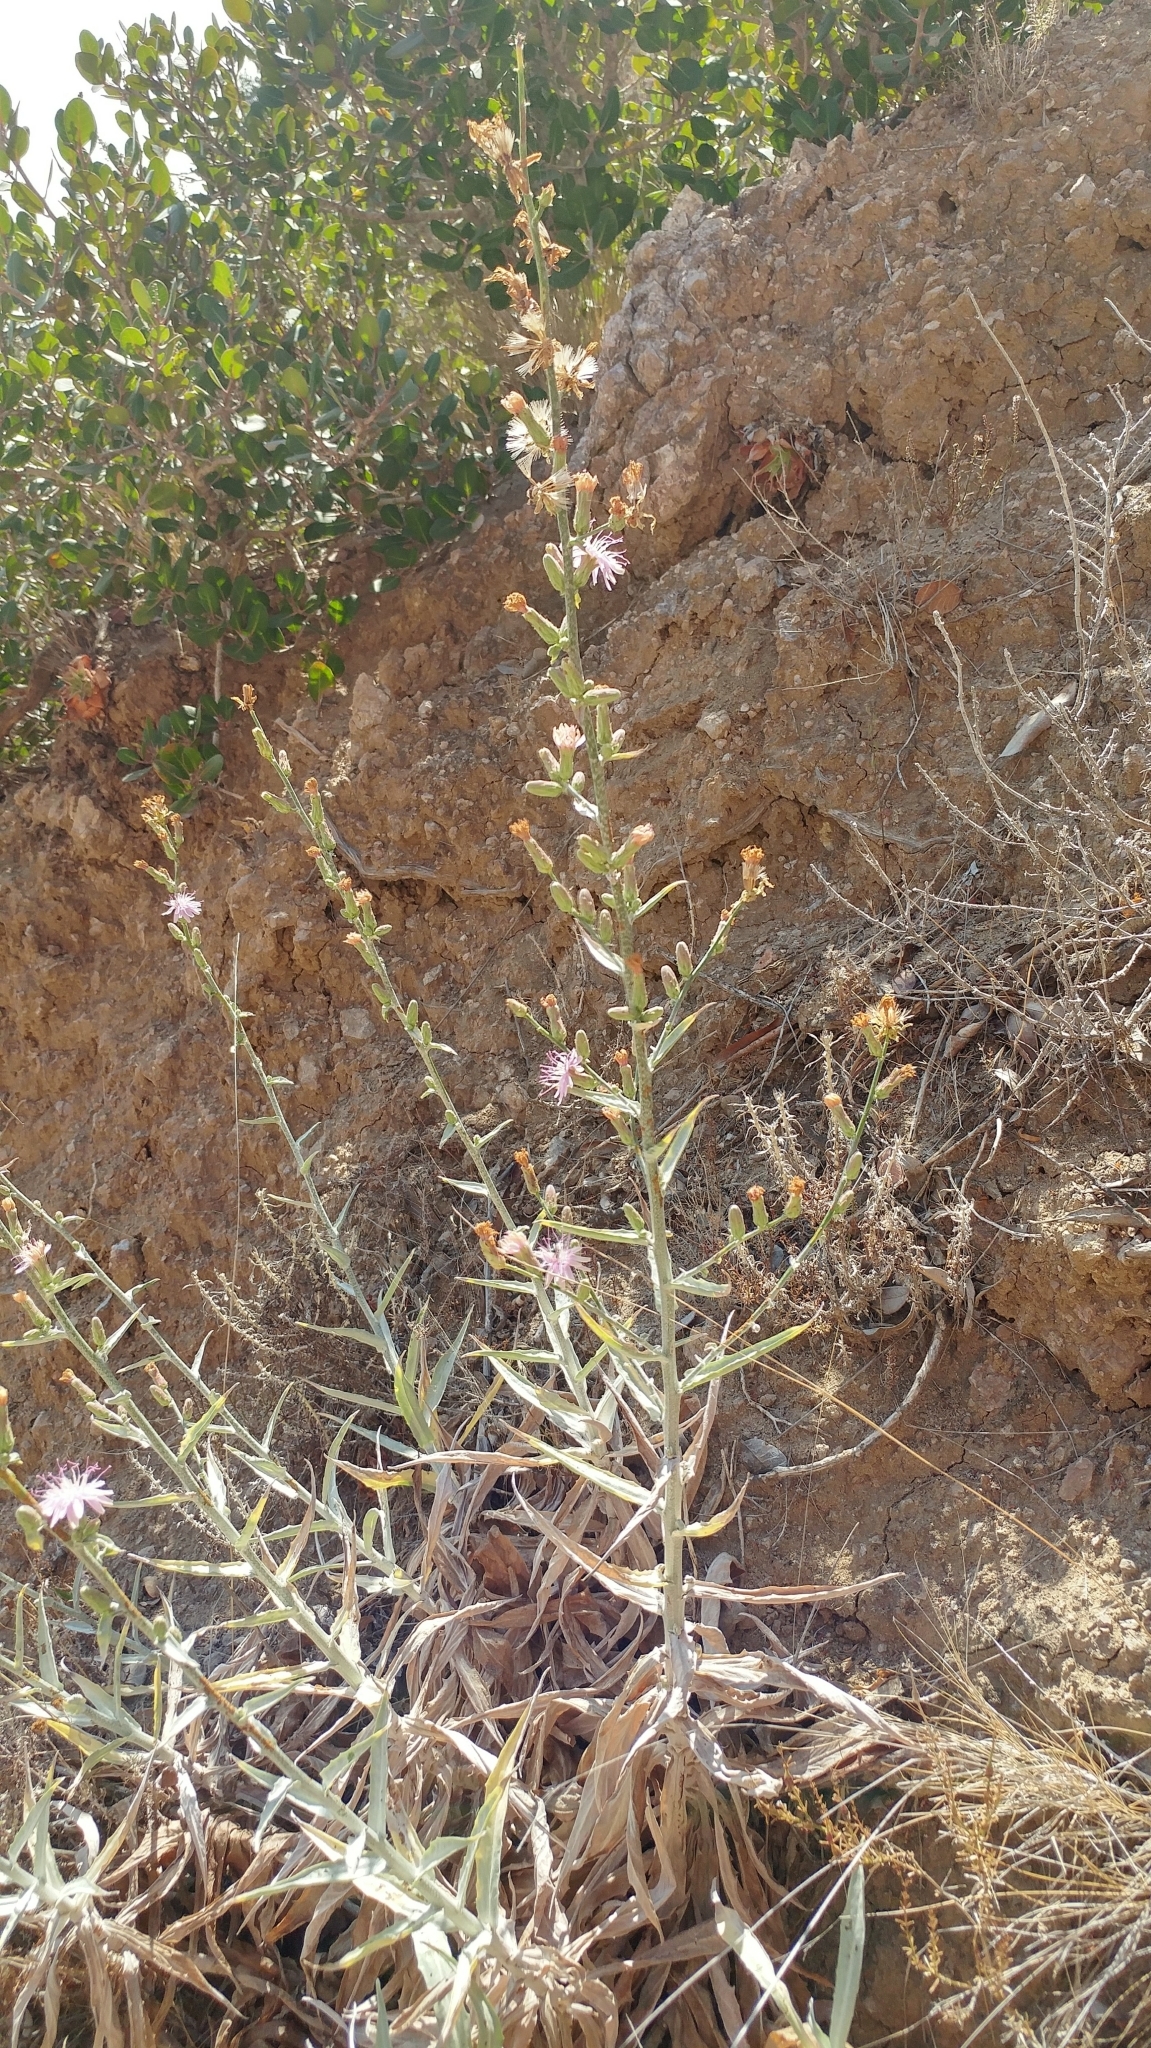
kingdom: Plantae
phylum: Tracheophyta
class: Magnoliopsida
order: Asterales
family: Asteraceae
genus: Stephanomeria
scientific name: Stephanomeria cichoriacea
